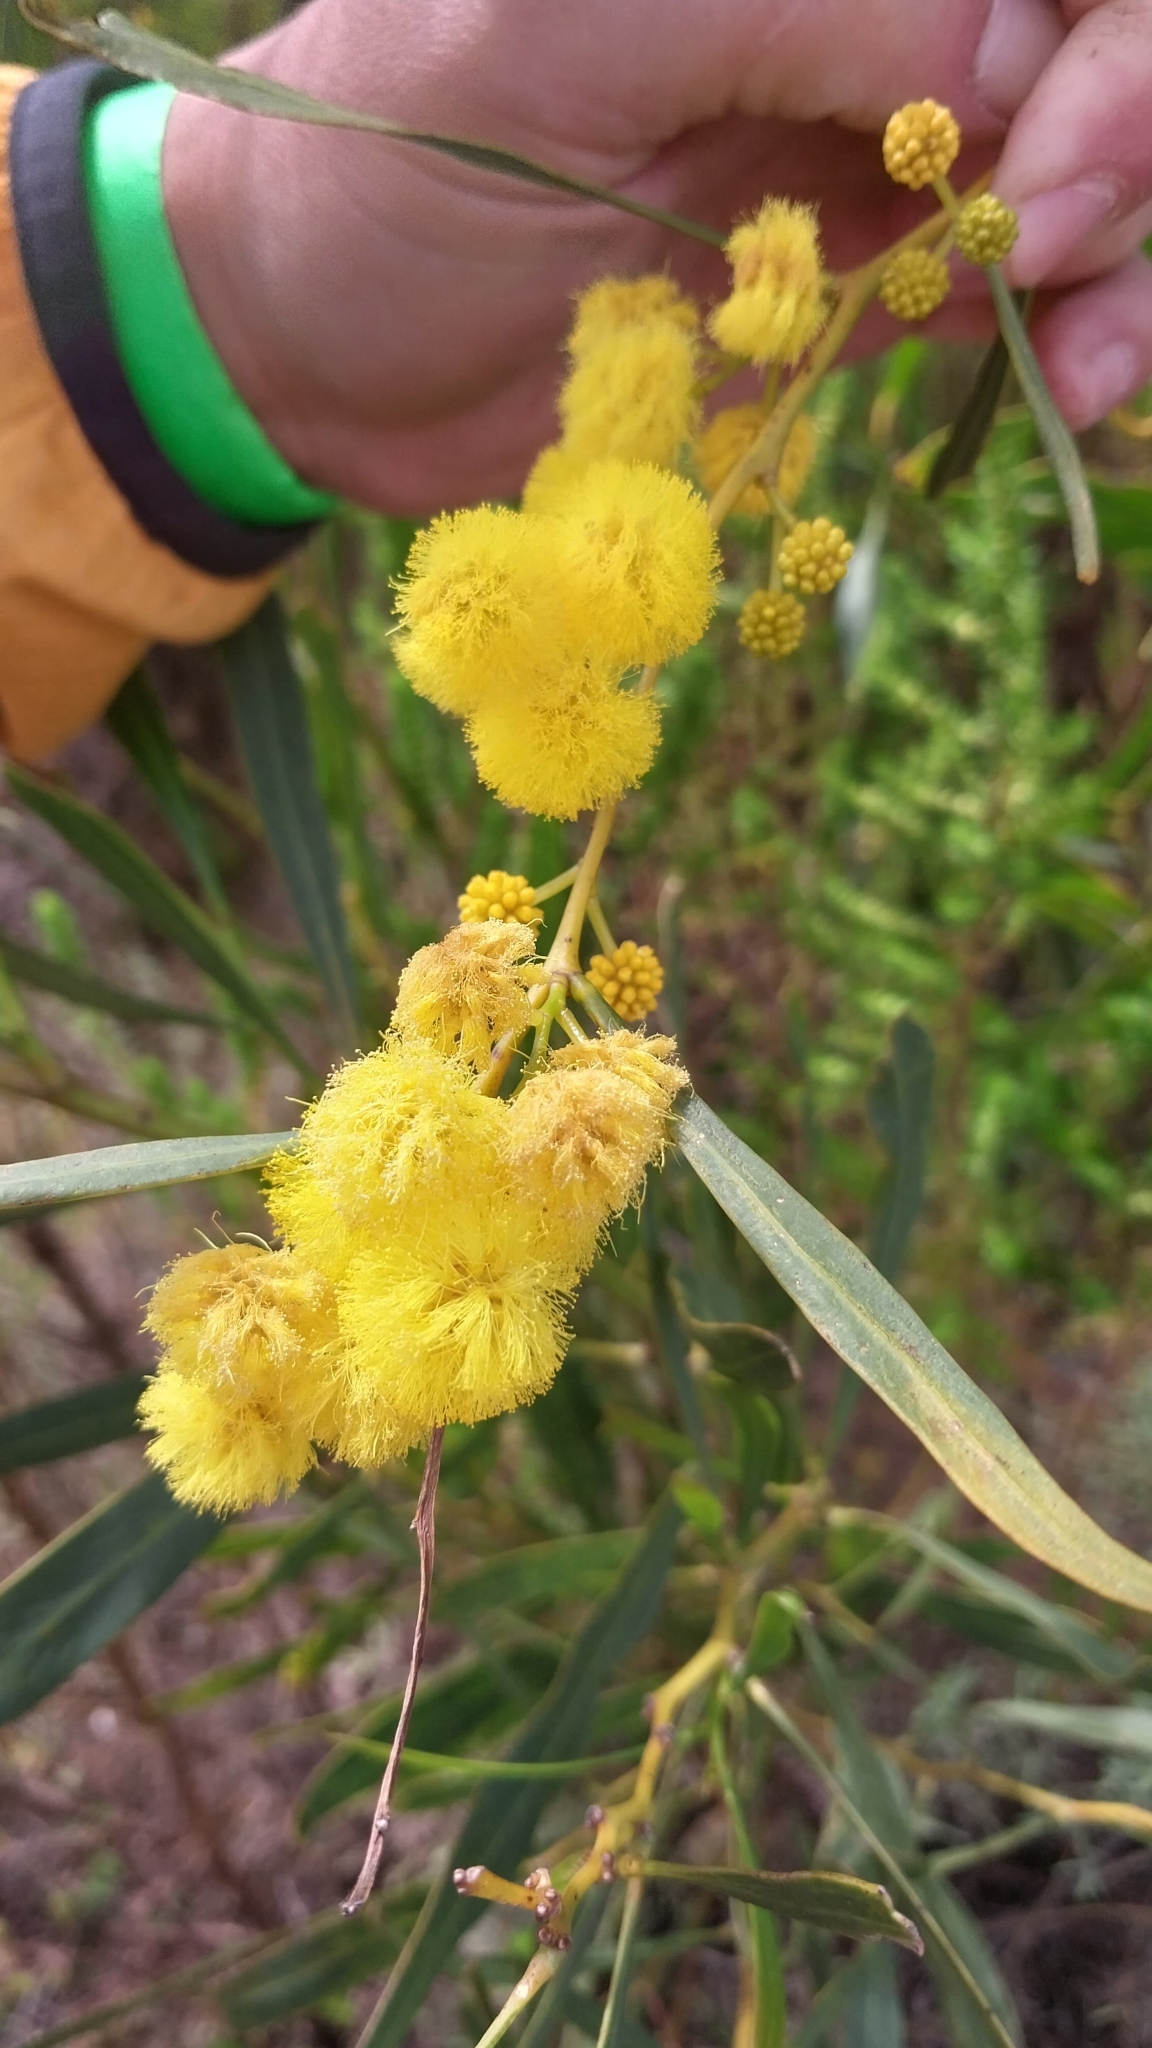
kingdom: Plantae
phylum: Tracheophyta
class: Magnoliopsida
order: Fabales
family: Fabaceae
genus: Acacia
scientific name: Acacia saligna
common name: Orange wattle
